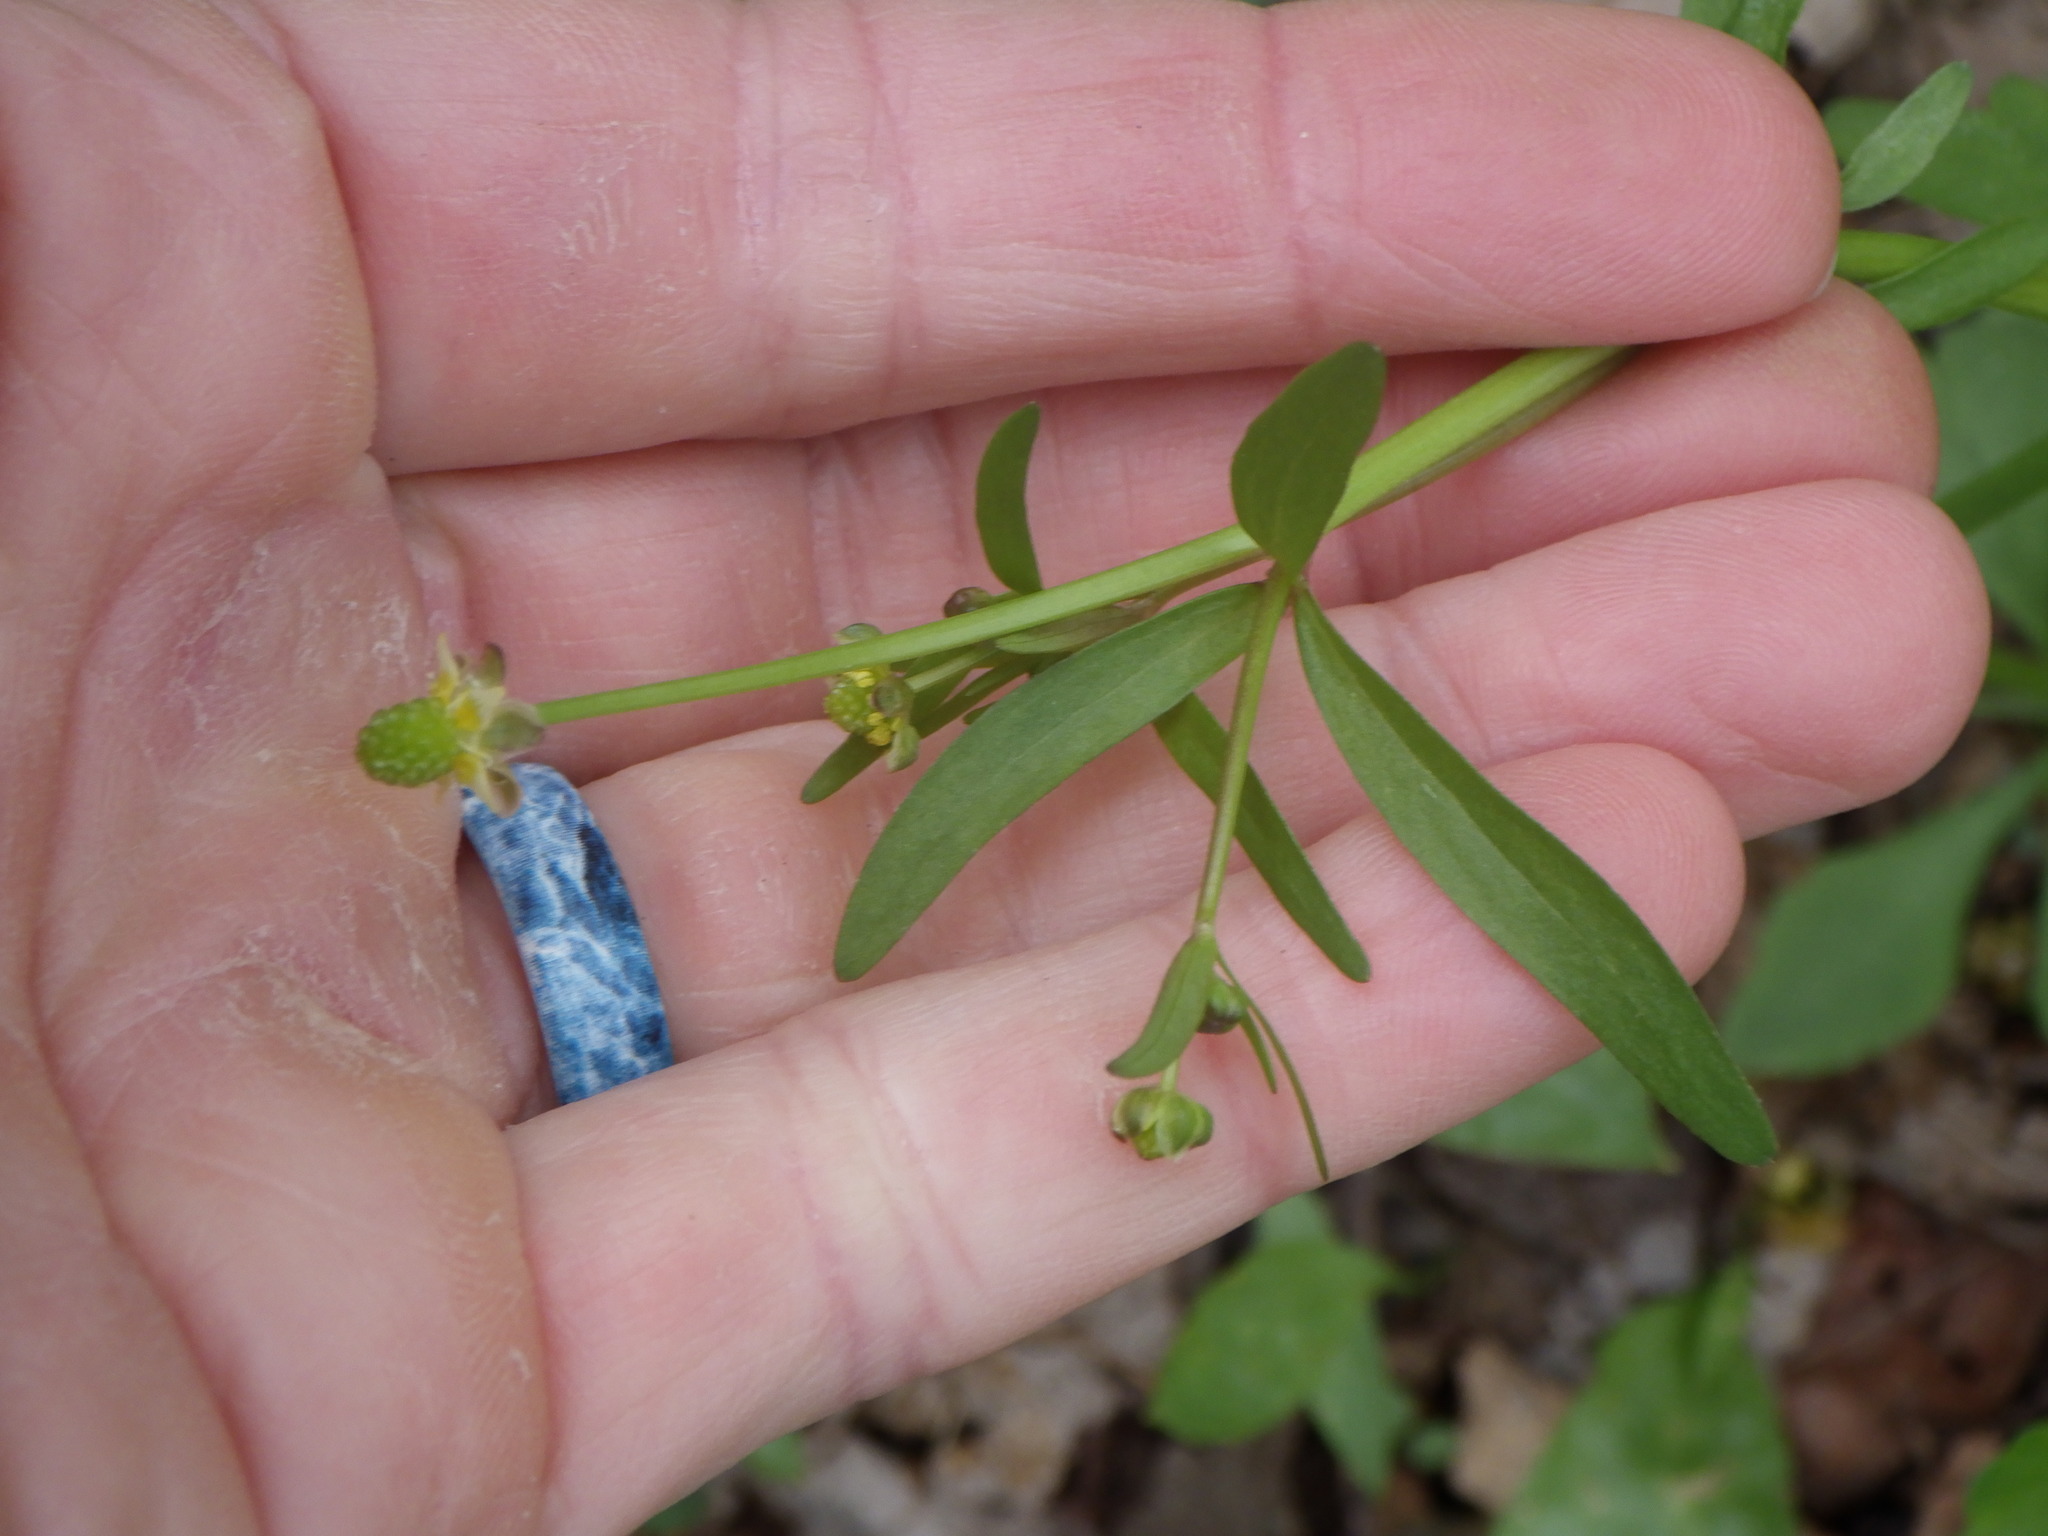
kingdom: Plantae
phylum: Tracheophyta
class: Magnoliopsida
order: Ranunculales
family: Ranunculaceae
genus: Ranunculus
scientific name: Ranunculus abortivus
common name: Early wood buttercup
